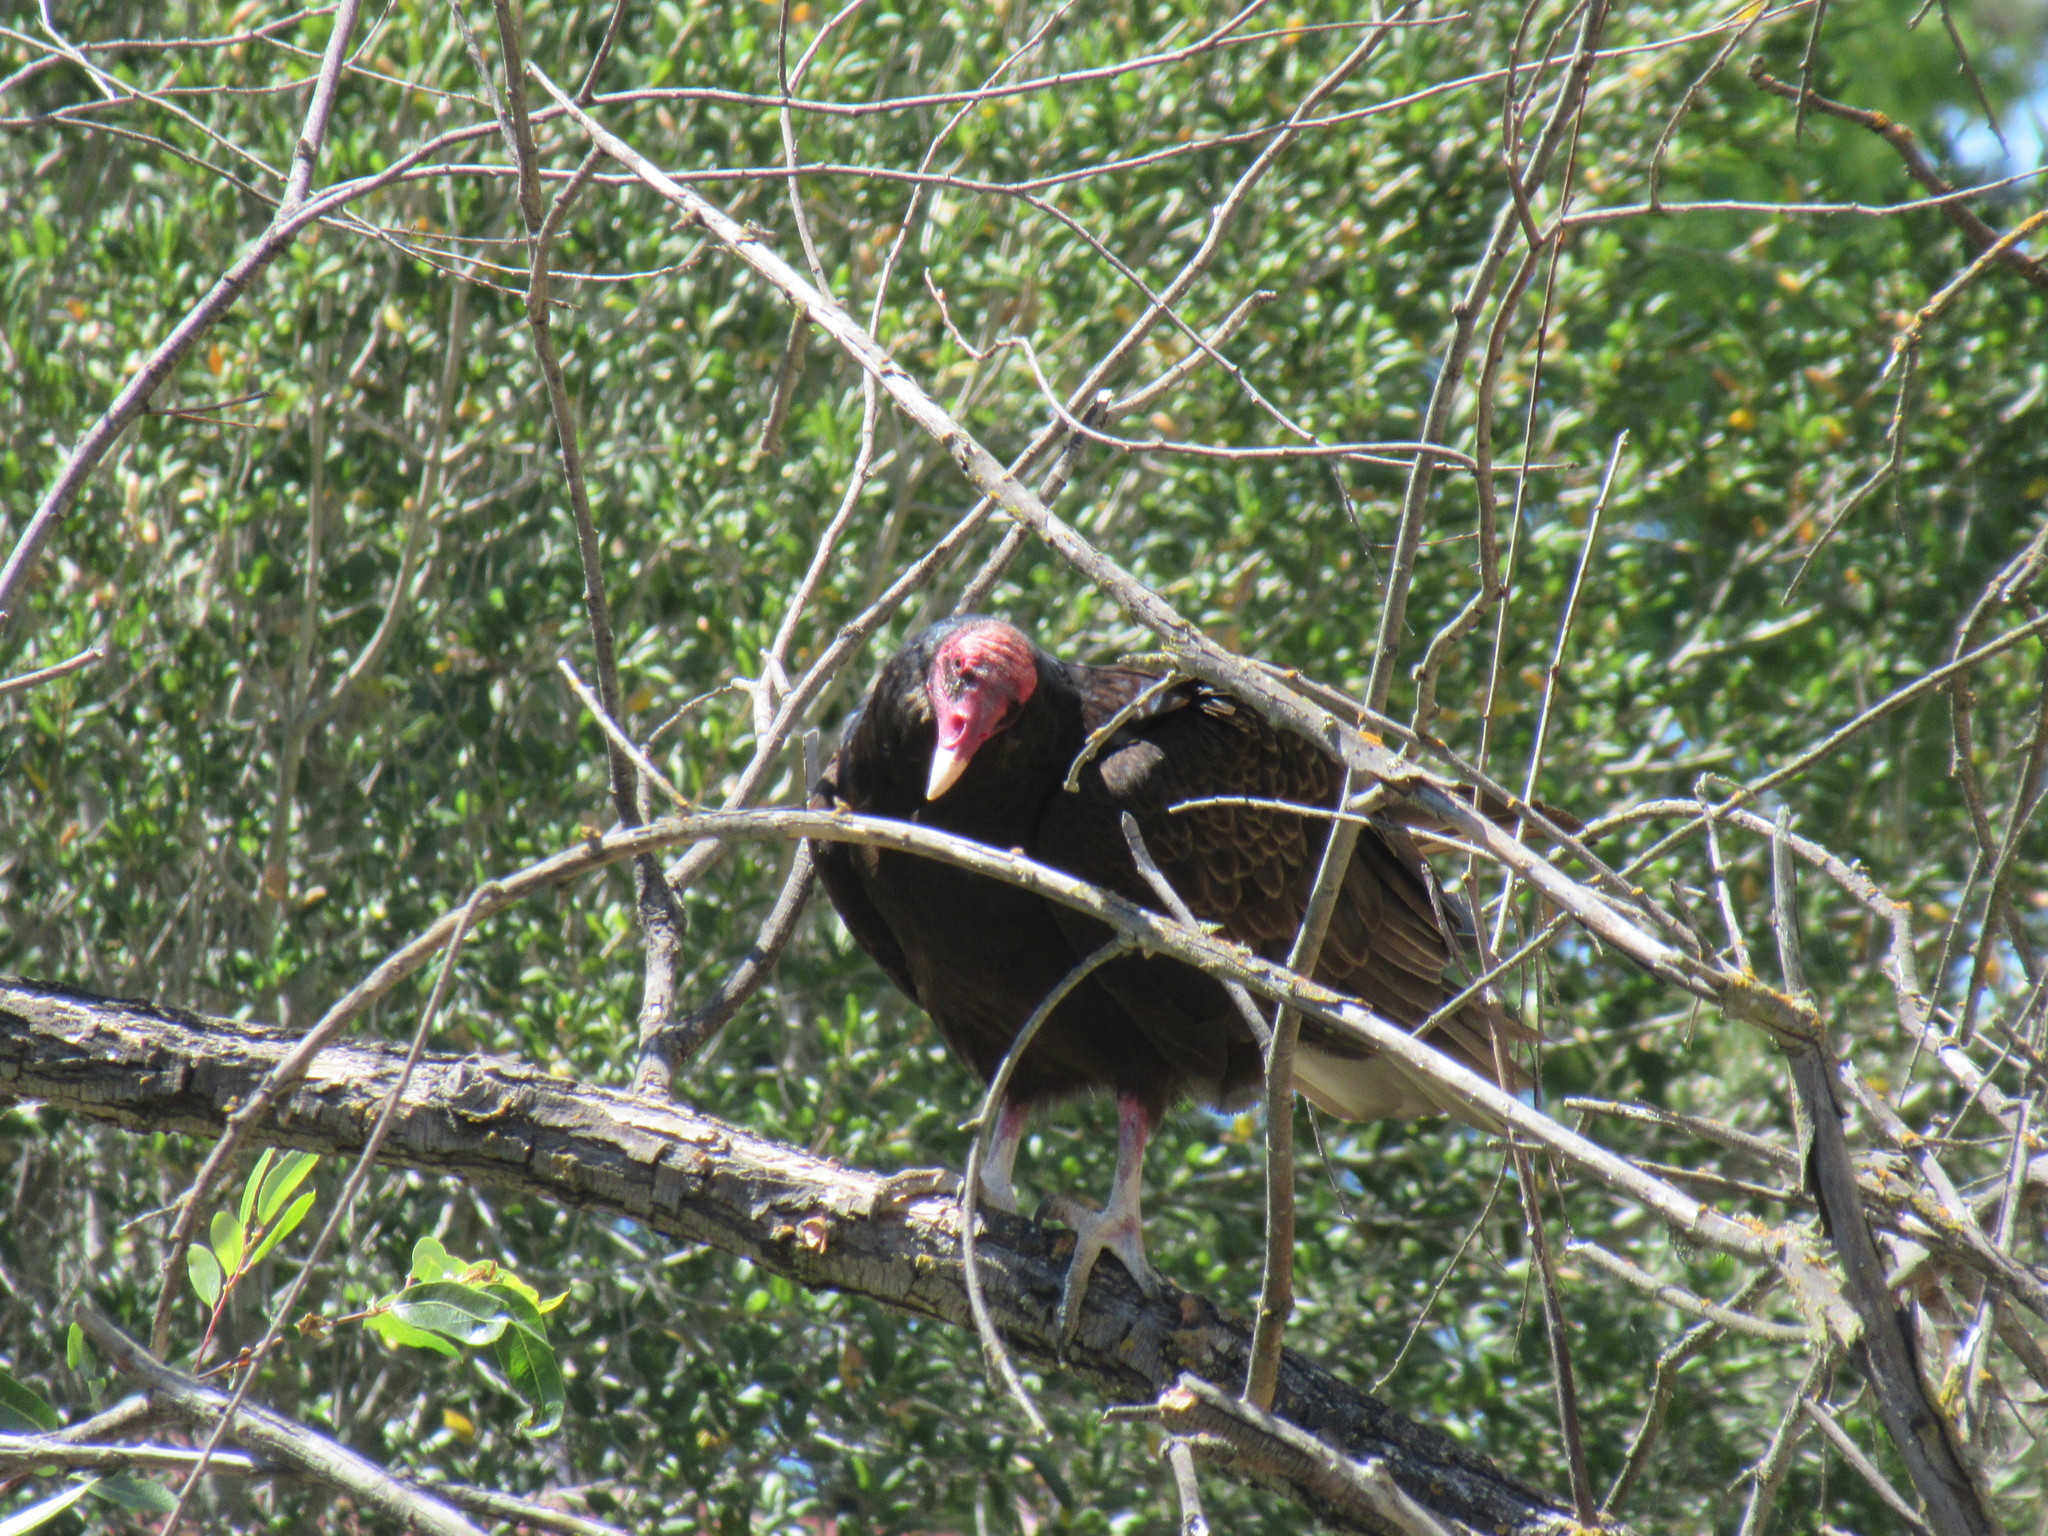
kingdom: Animalia
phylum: Chordata
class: Aves
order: Accipitriformes
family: Cathartidae
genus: Cathartes
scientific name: Cathartes aura
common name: Turkey vulture
